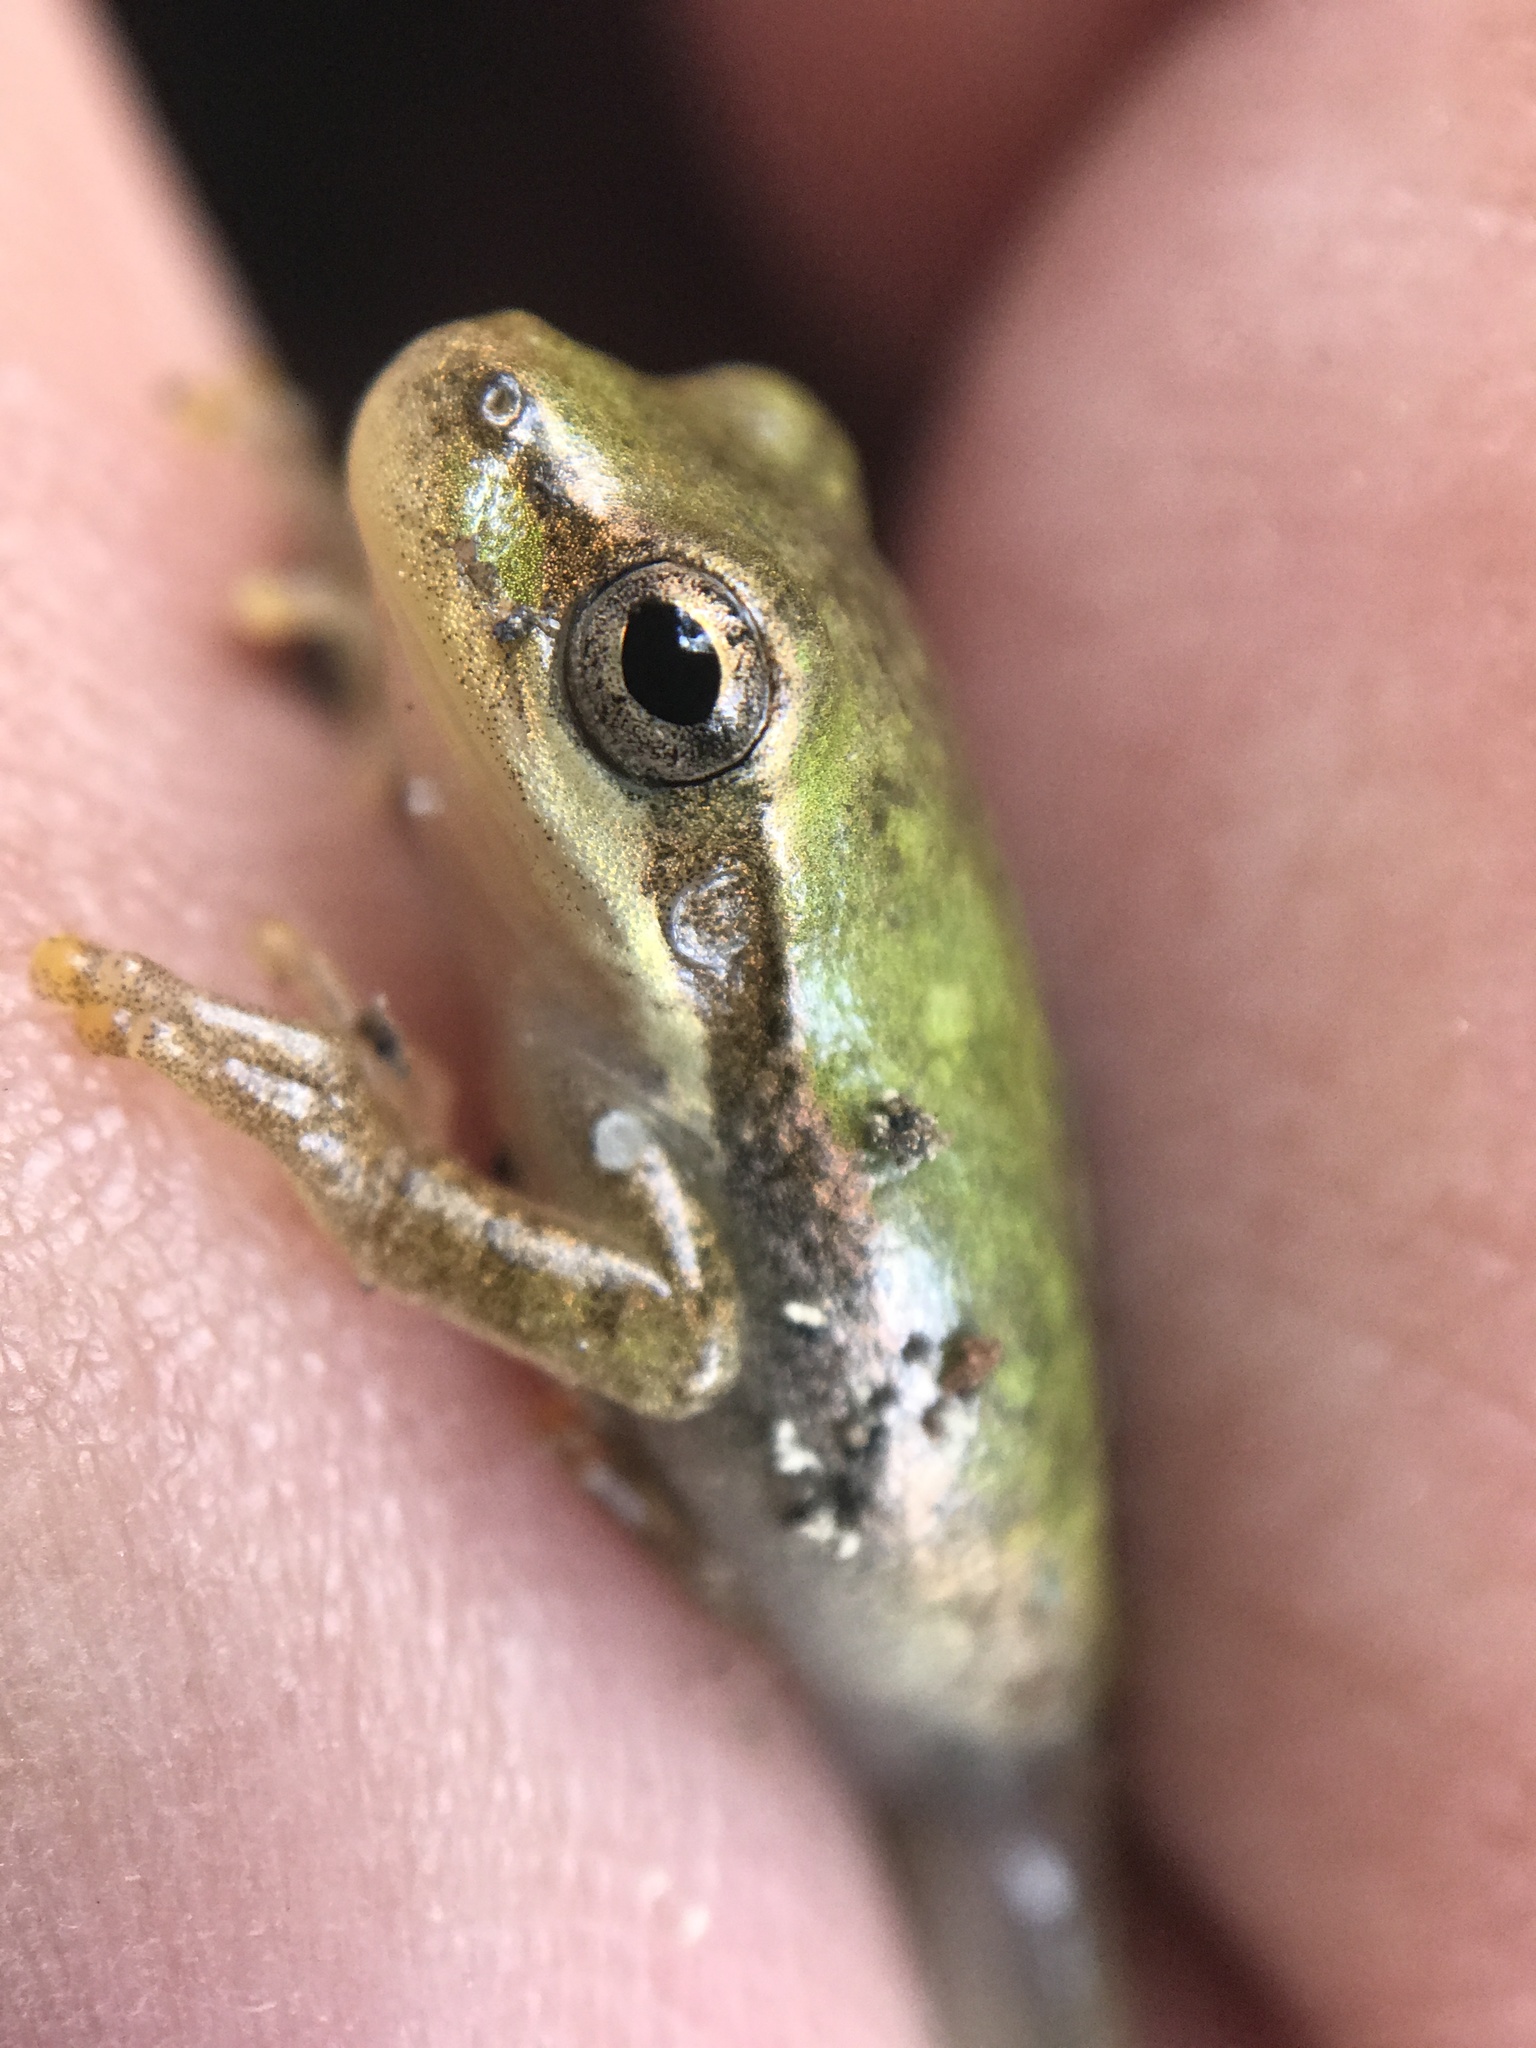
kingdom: Animalia
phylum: Chordata
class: Amphibia
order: Anura
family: Hylidae
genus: Dryophytes
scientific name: Dryophytes squirellus
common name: Squirrel treefrog
